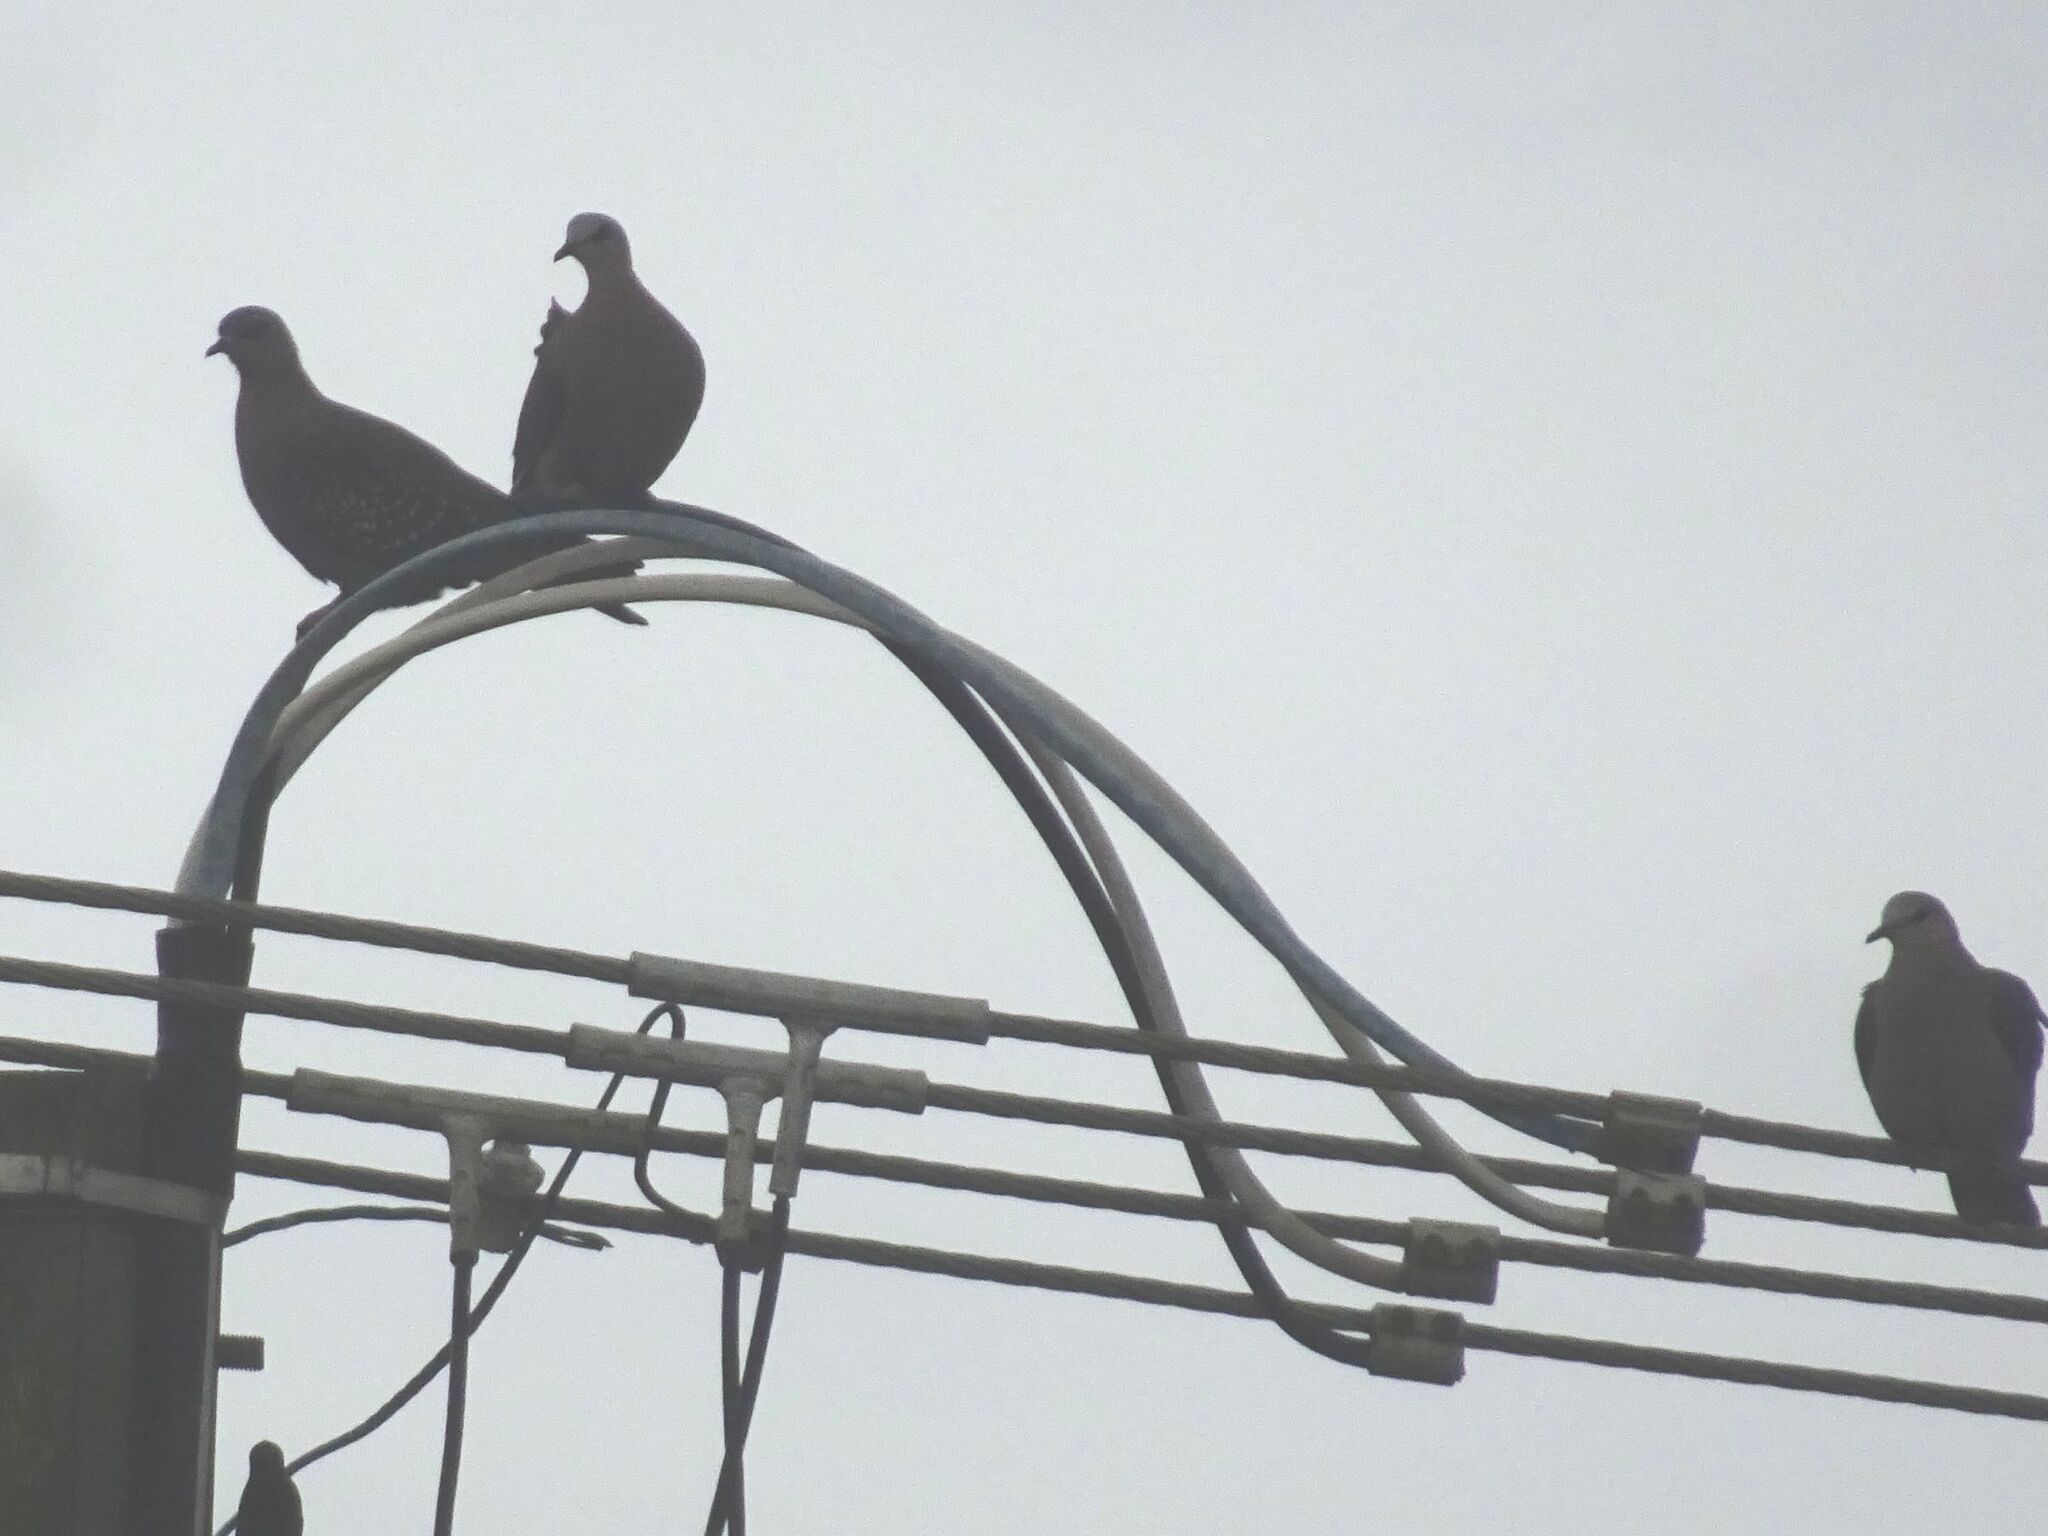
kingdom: Animalia
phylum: Chordata
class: Aves
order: Columbiformes
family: Columbidae
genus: Columba
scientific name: Columba guinea
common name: Speckled pigeon
